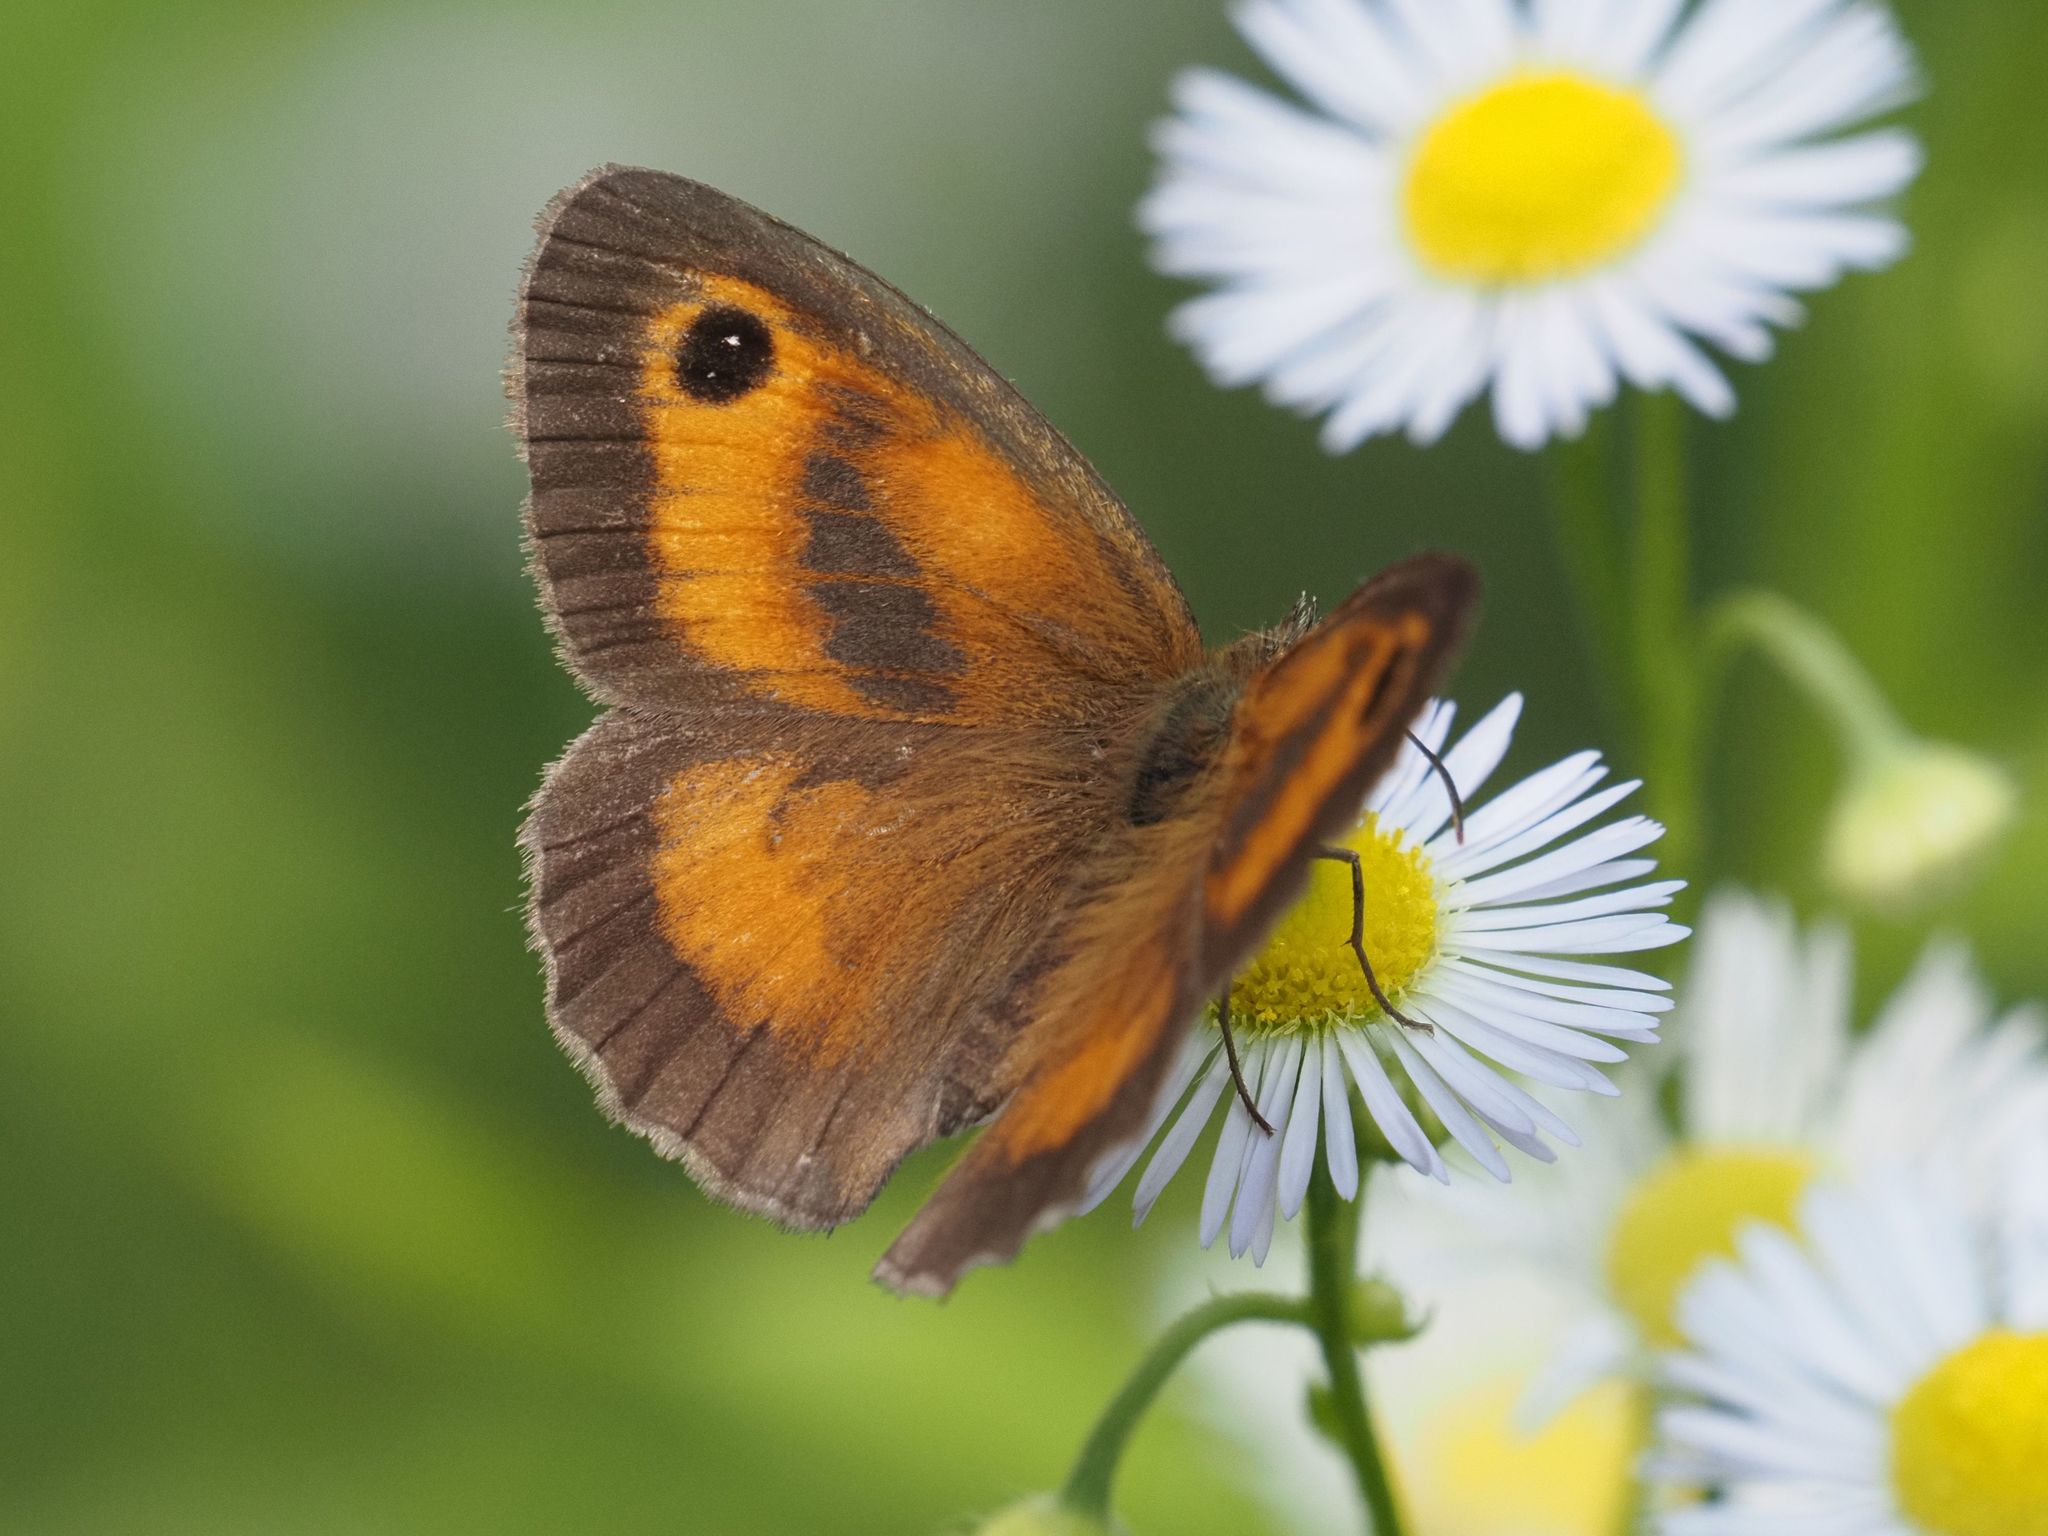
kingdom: Animalia
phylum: Arthropoda
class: Insecta
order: Lepidoptera
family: Nymphalidae
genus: Pyronia
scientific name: Pyronia tithonus
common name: Gatekeeper
